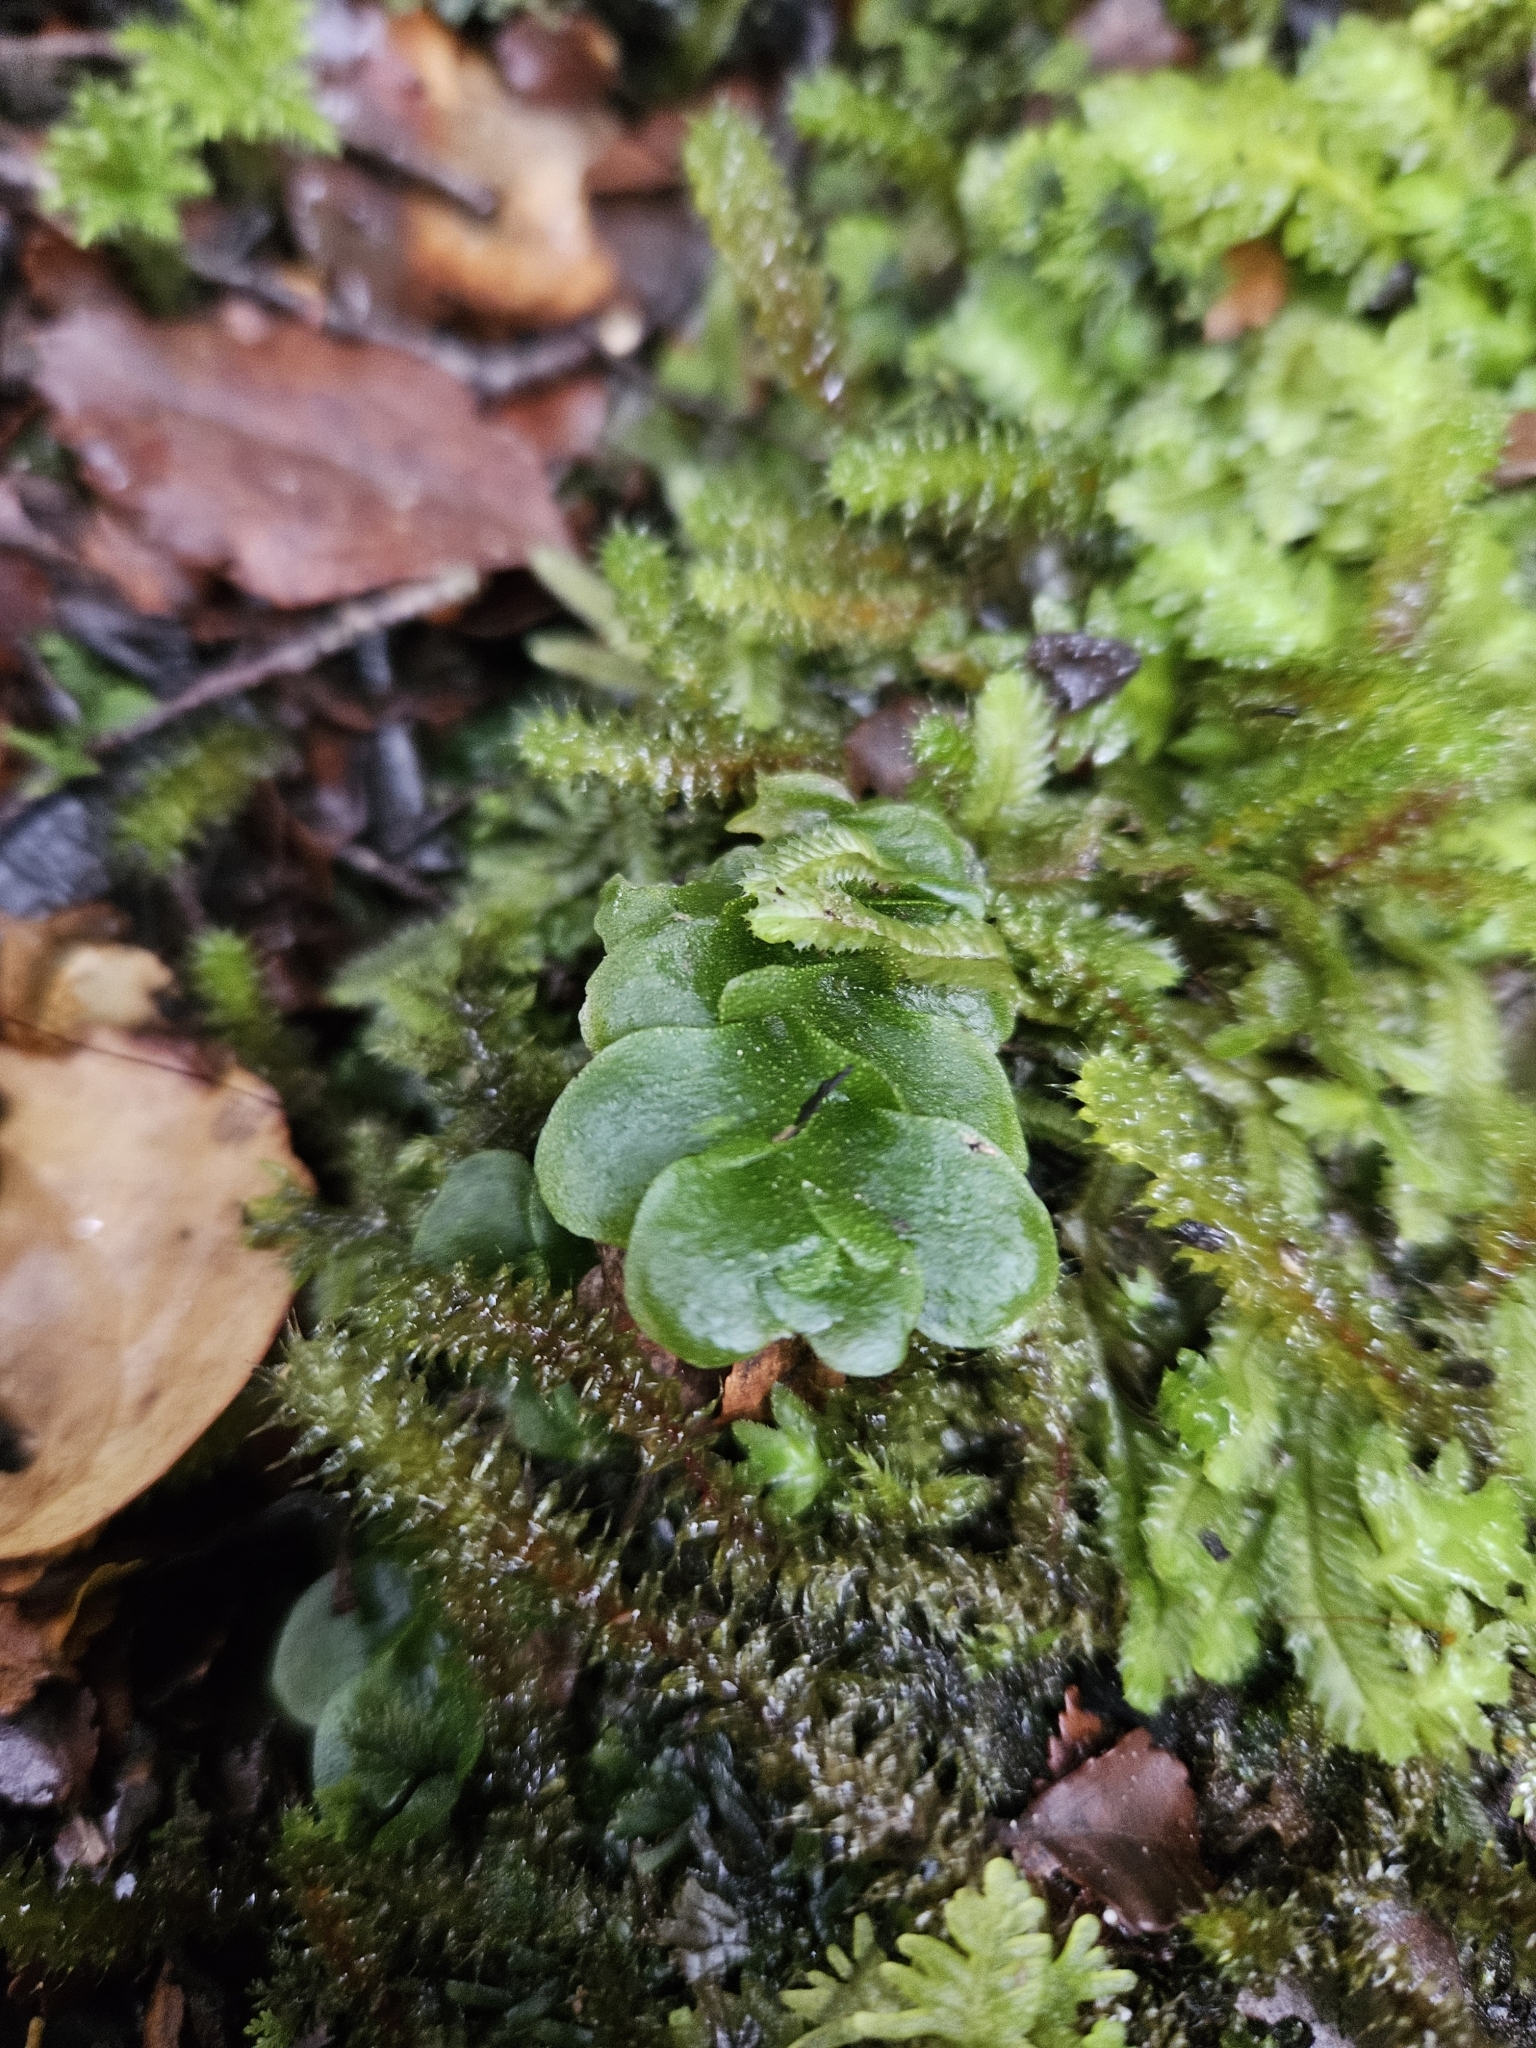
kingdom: Plantae
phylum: Marchantiophyta
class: Haplomitriopsida
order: Treubiales
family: Treubiaceae
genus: Treubia
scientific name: Treubia lacunosa
